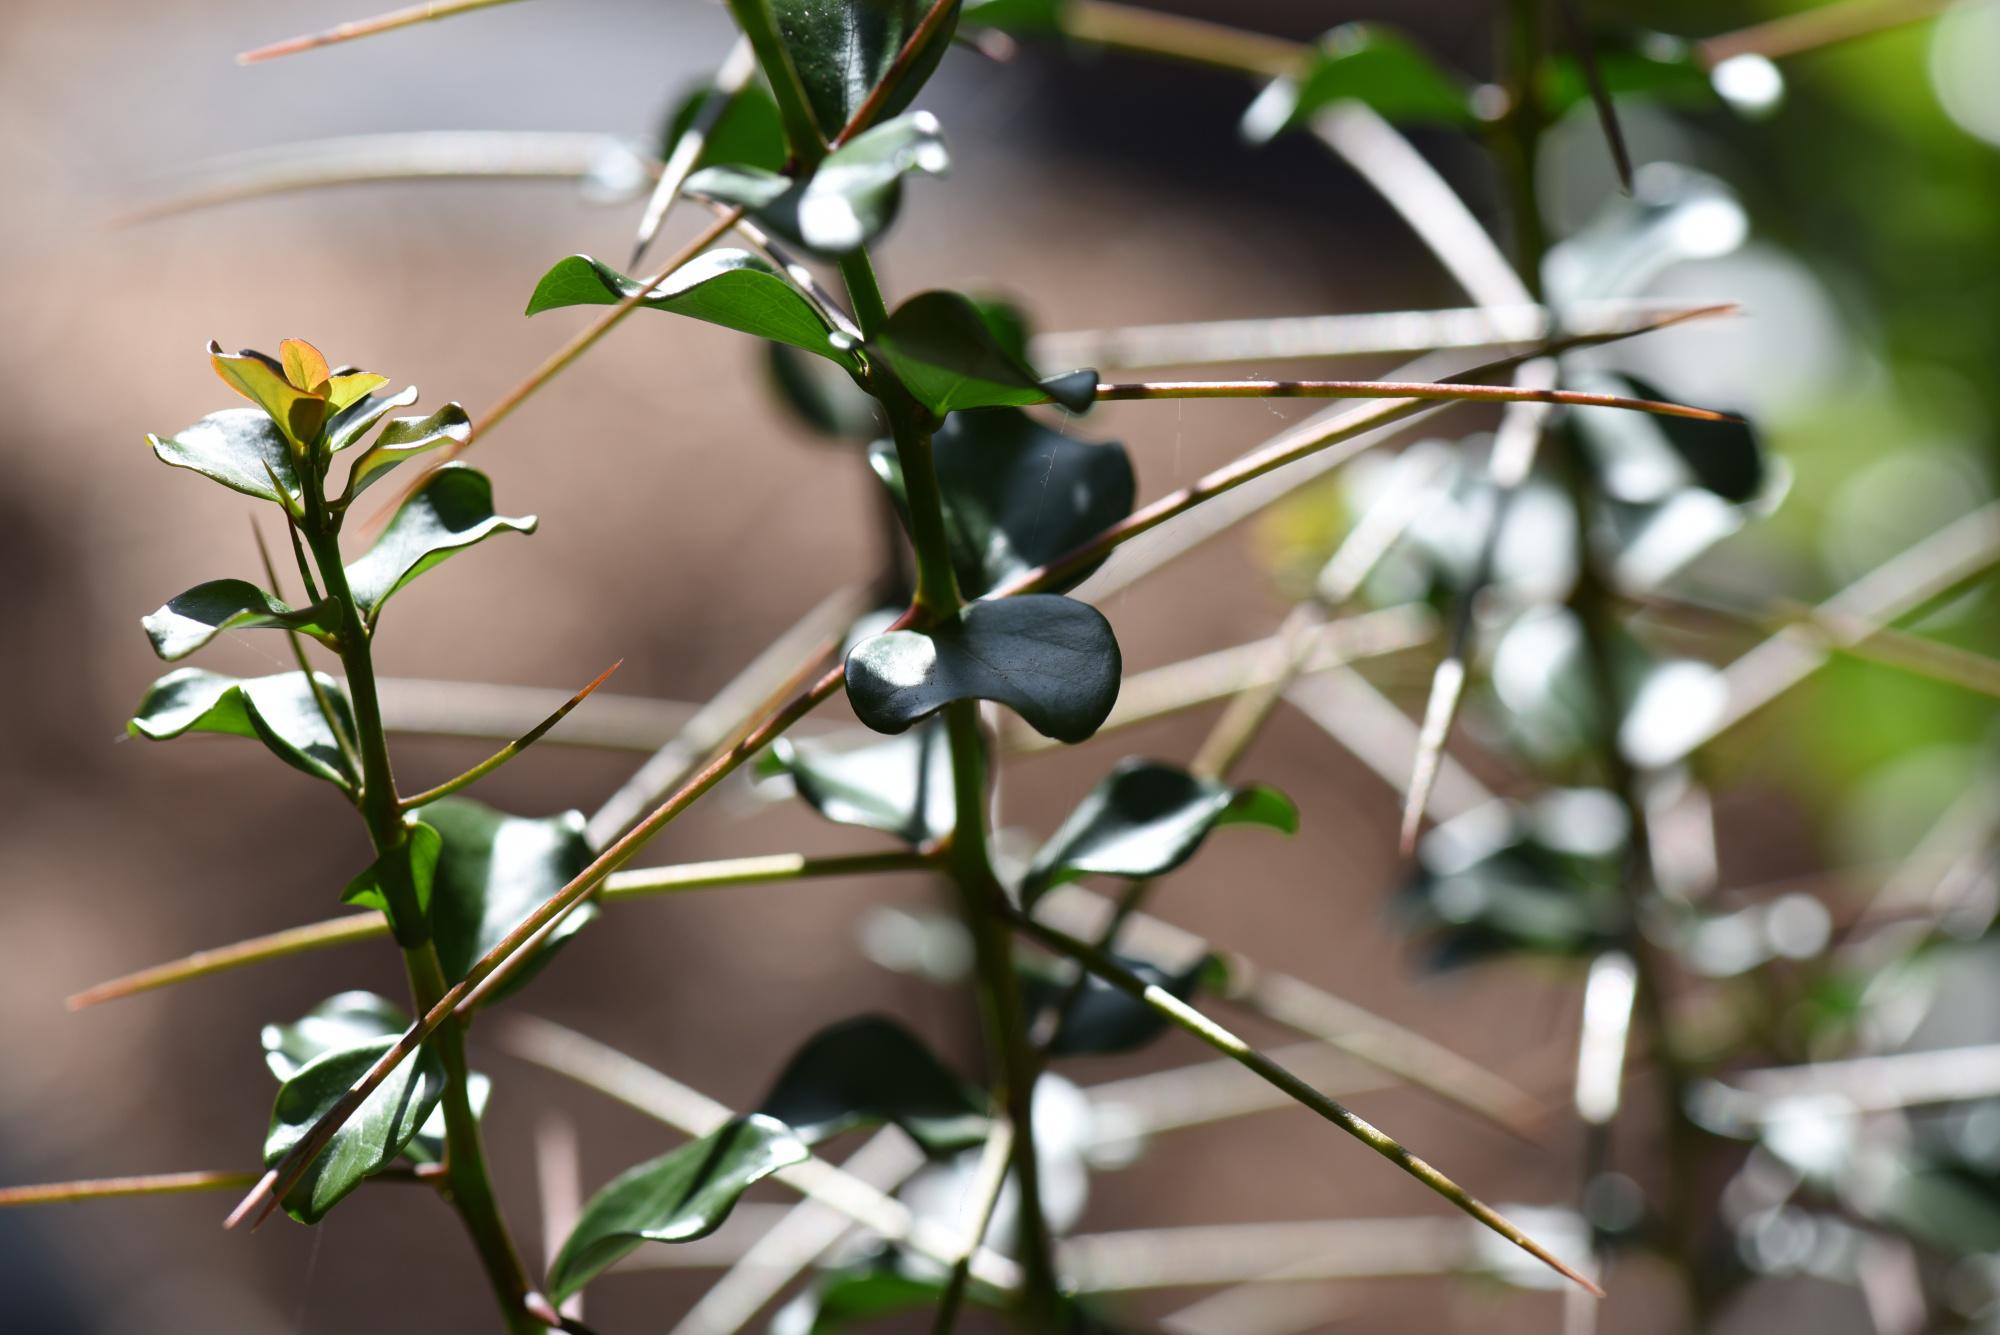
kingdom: Plantae
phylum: Tracheophyta
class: Magnoliopsida
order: Malpighiales
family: Salicaceae
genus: Dovyalis
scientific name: Dovyalis rotundifolia
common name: Dune sourberry
